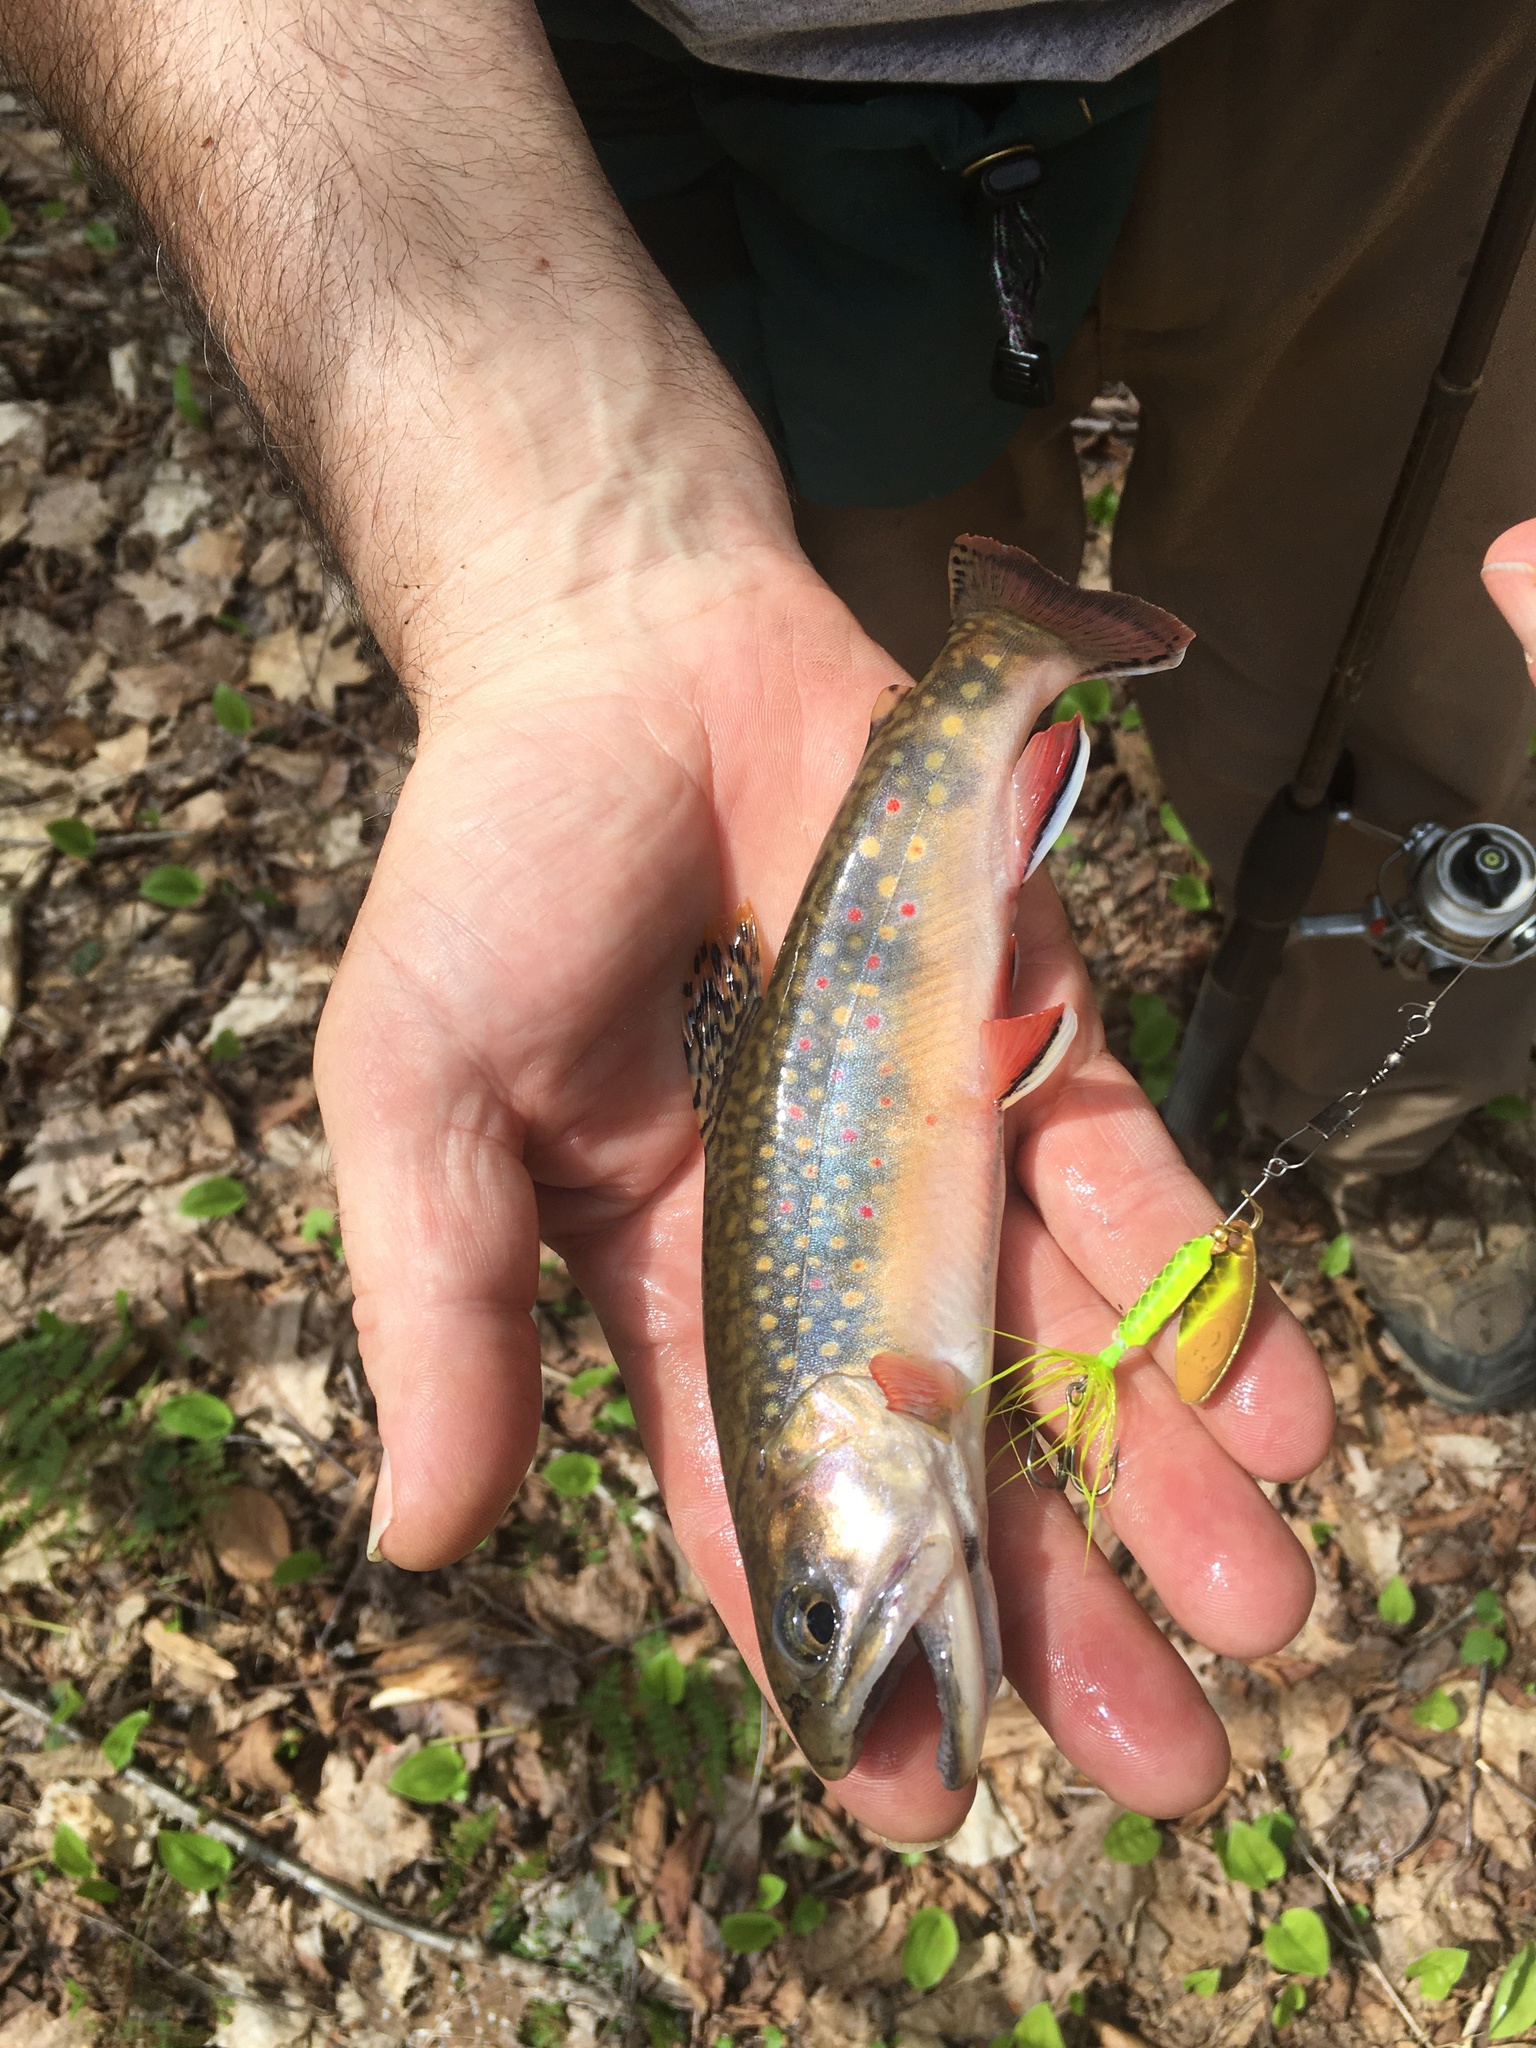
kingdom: Animalia
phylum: Chordata
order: Salmoniformes
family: Salmonidae
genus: Salvelinus
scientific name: Salvelinus fontinalis
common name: Brook trout
